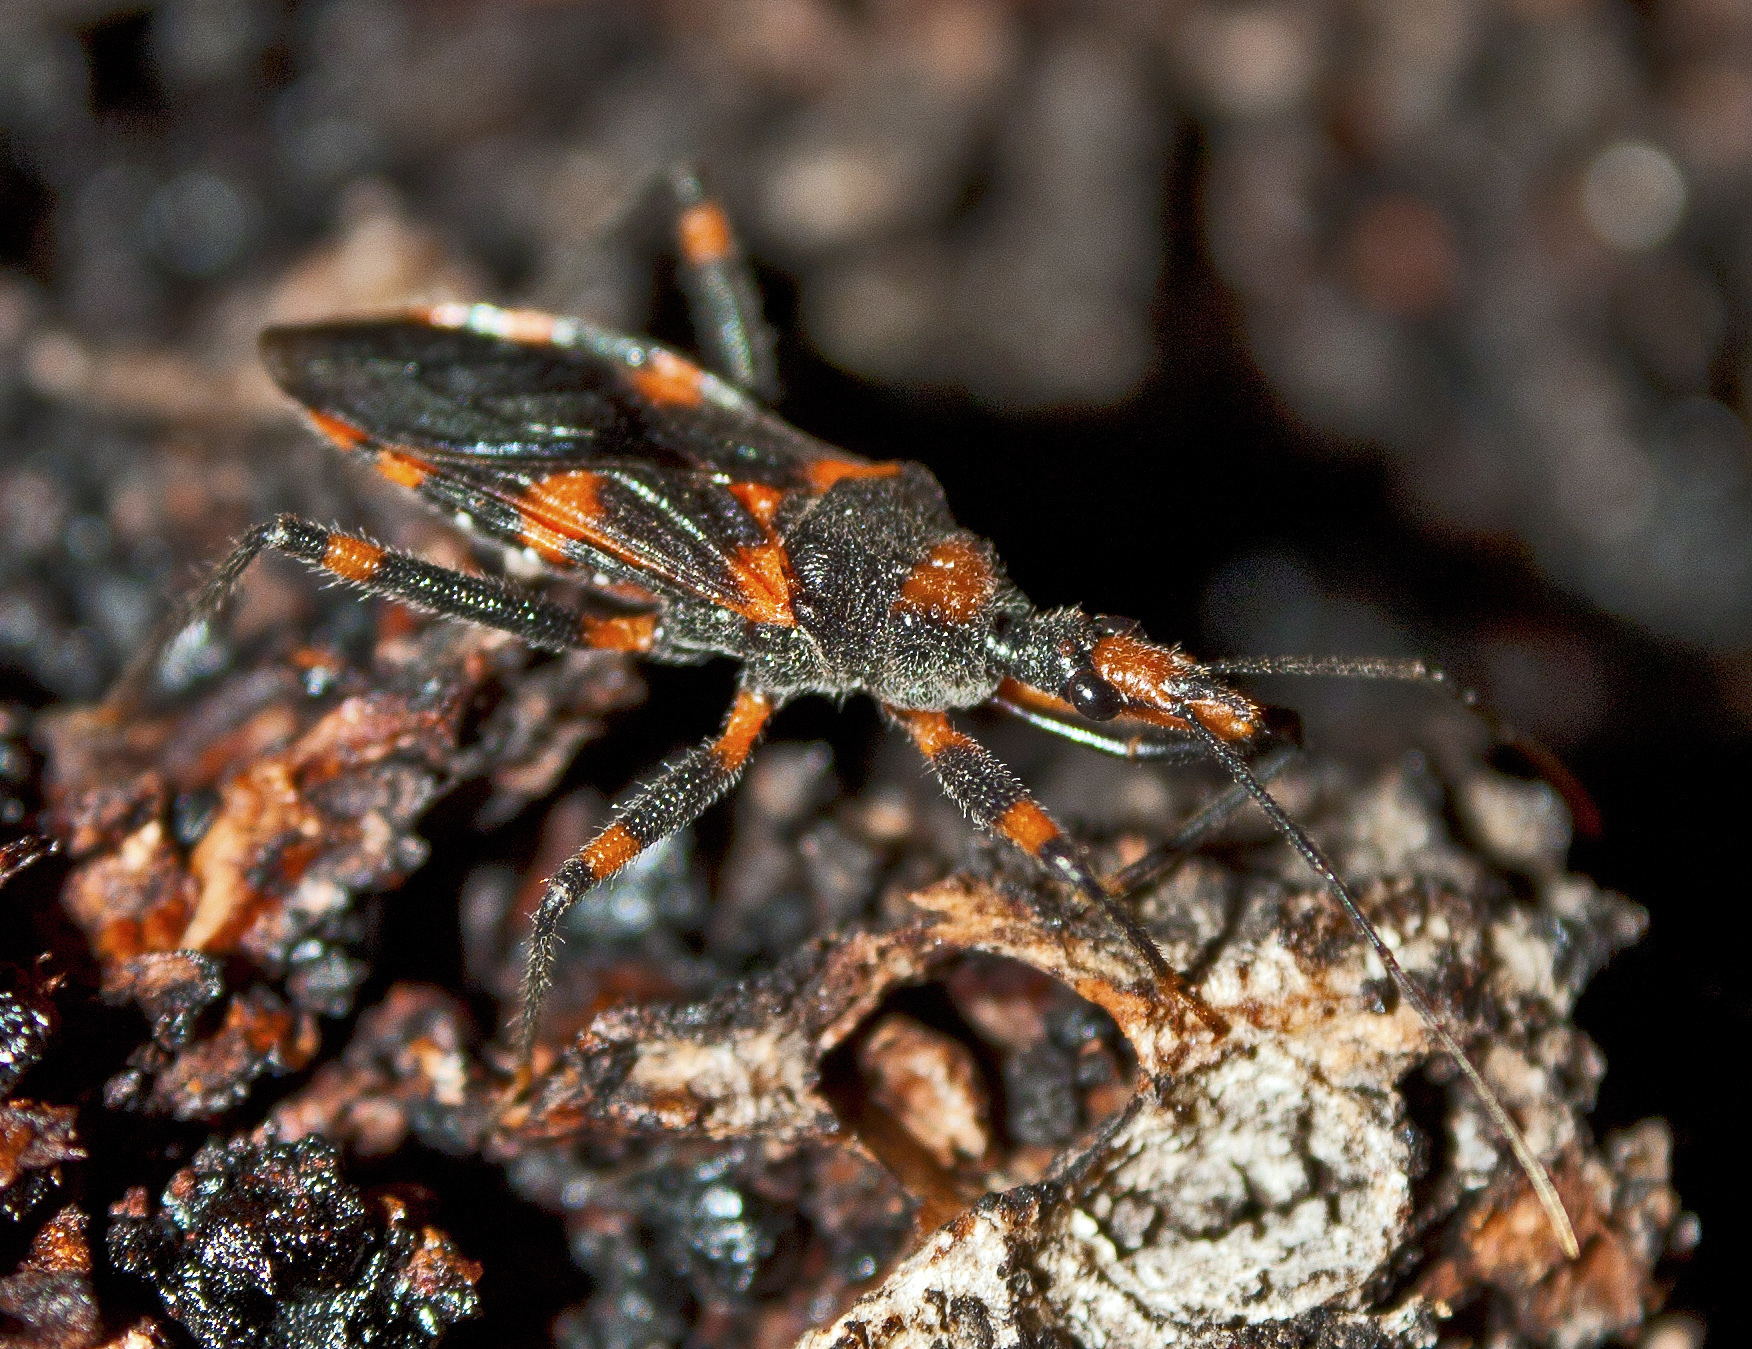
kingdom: Animalia
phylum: Arthropoda
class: Insecta
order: Hemiptera
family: Reduviidae
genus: Havinthus
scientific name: Havinthus rufovarius
